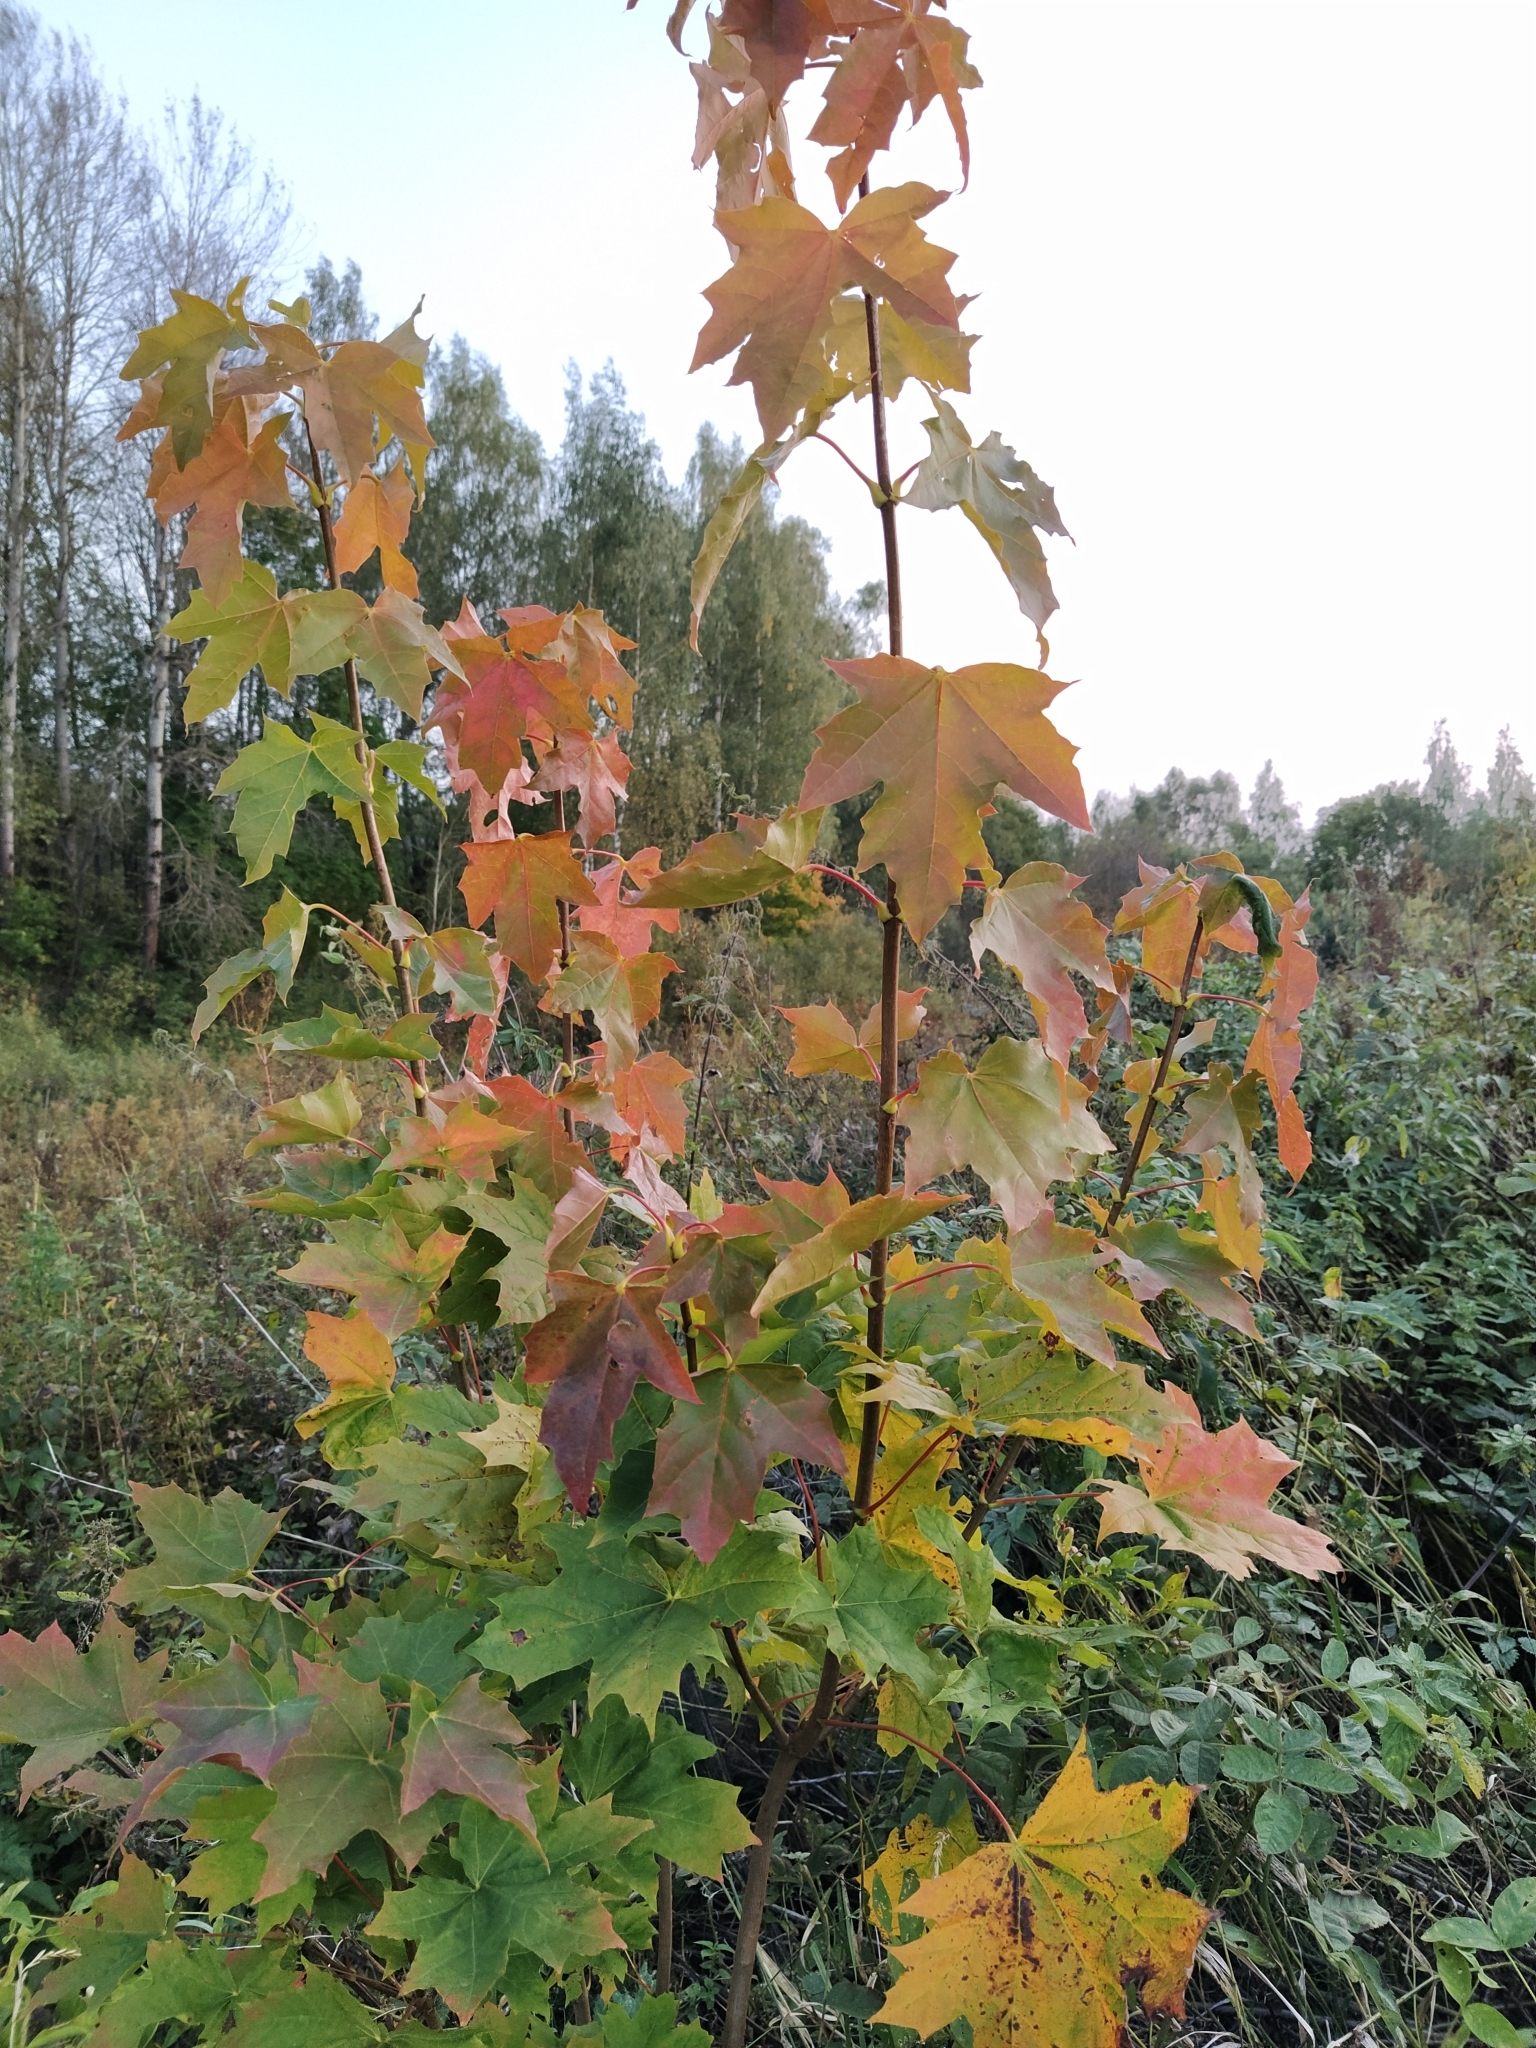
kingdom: Plantae
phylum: Tracheophyta
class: Magnoliopsida
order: Sapindales
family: Sapindaceae
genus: Acer
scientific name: Acer platanoides
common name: Norway maple
